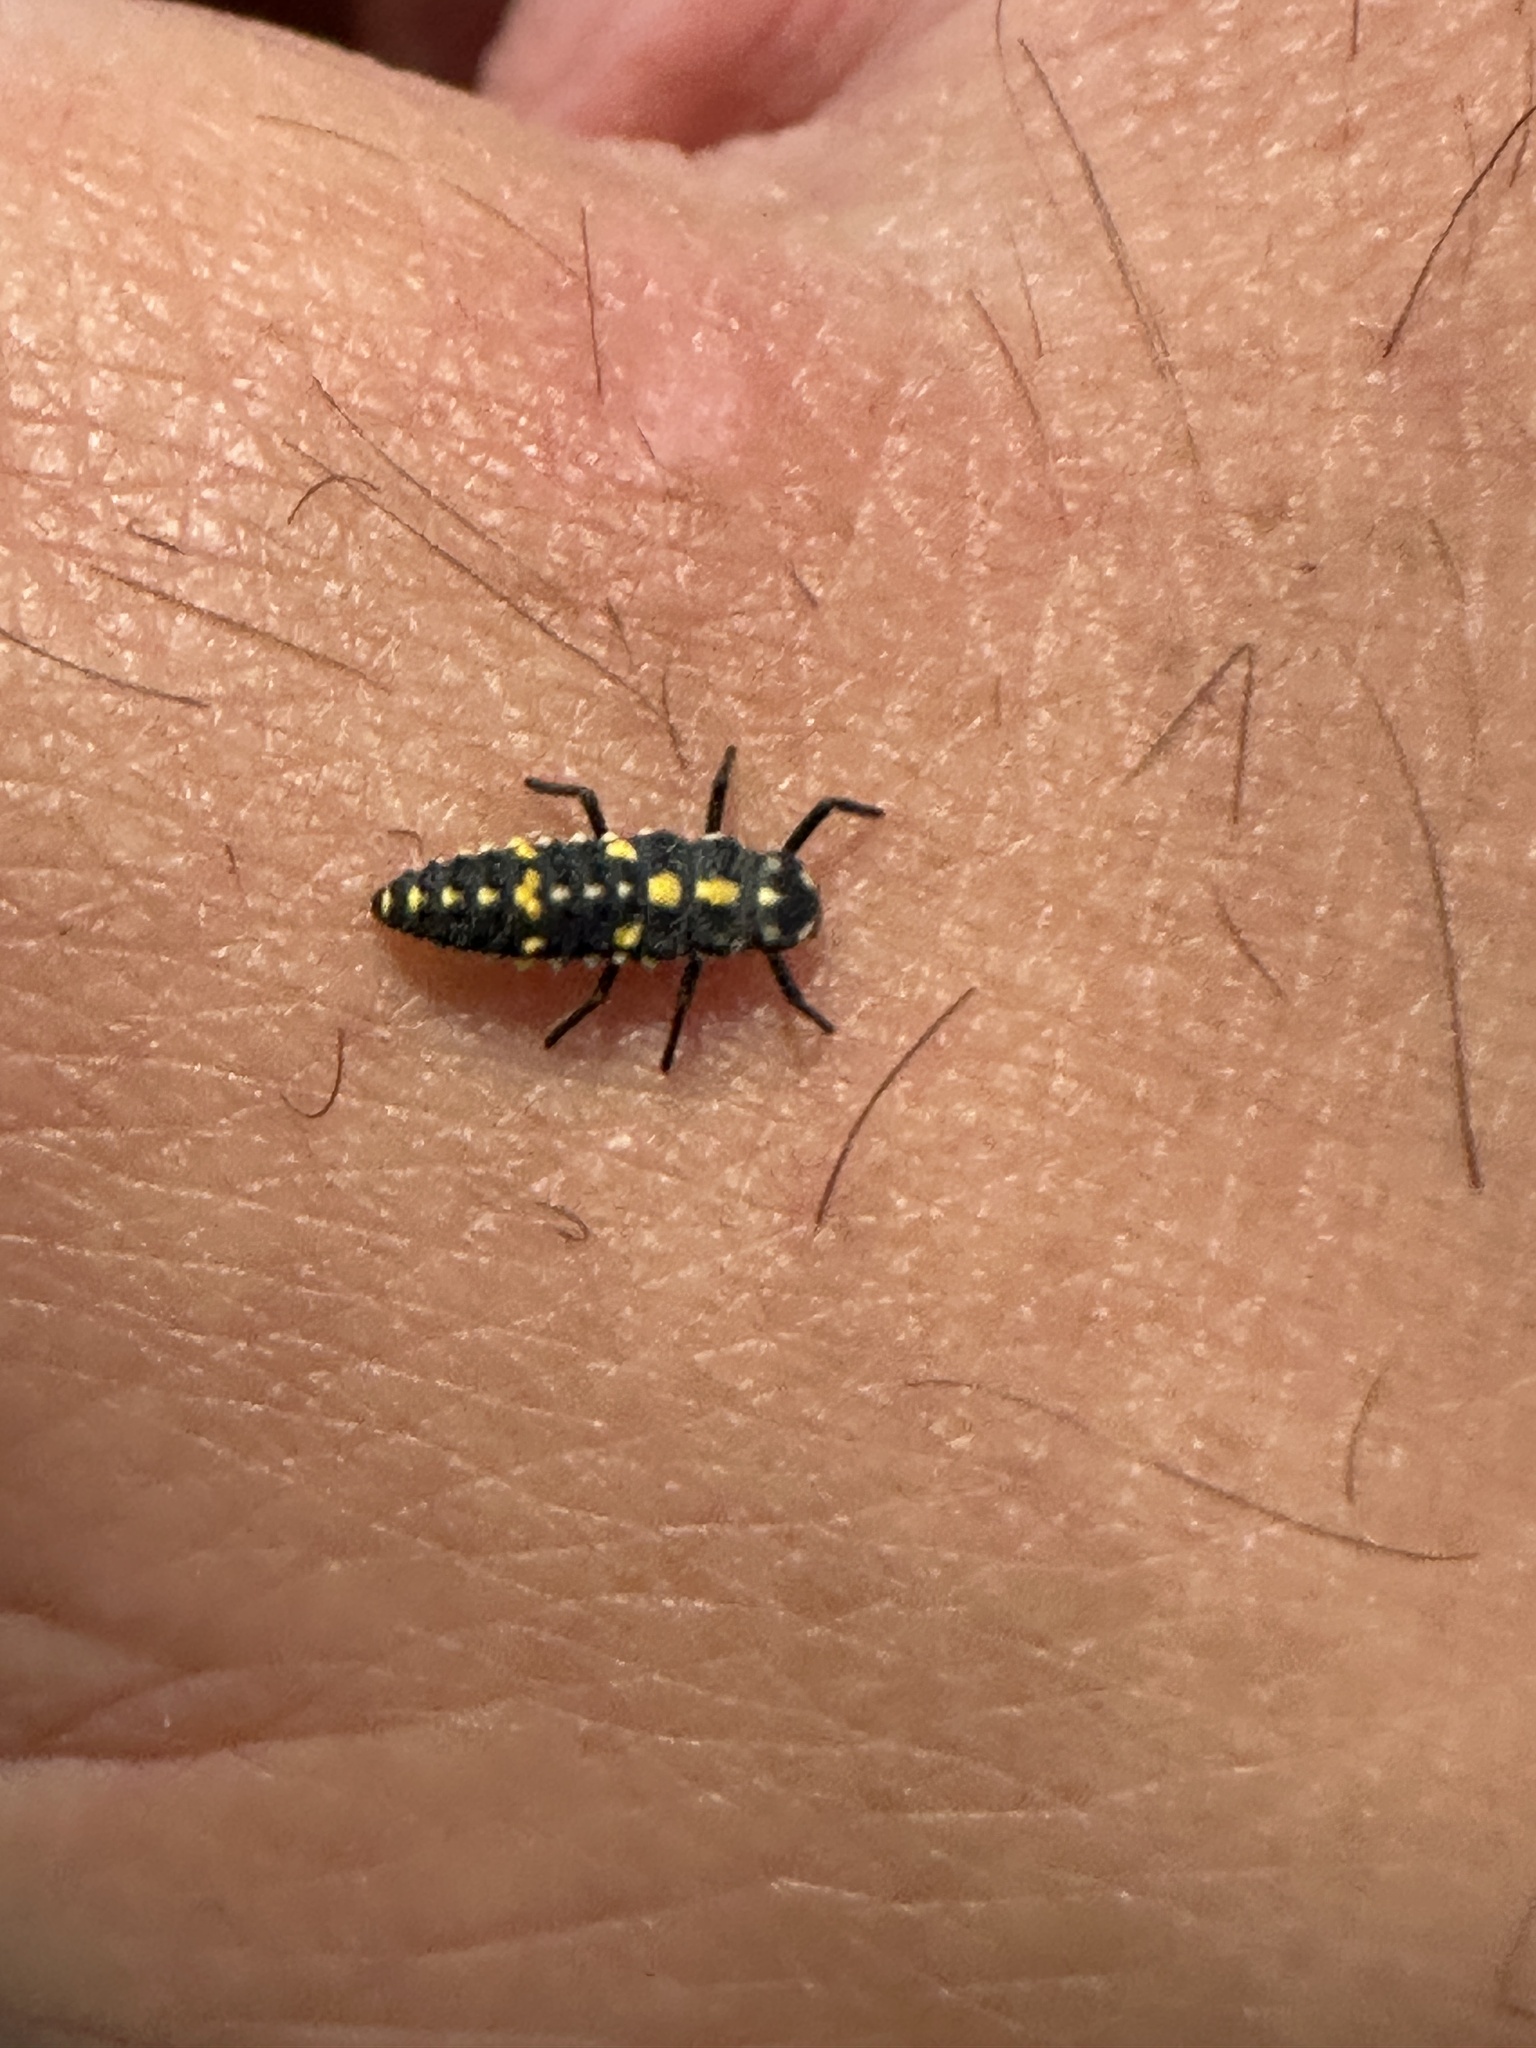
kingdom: Animalia
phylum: Arthropoda
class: Insecta
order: Coleoptera
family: Coccinellidae
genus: Olla
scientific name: Olla v-nigrum
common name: Ashy gray lady beetle
